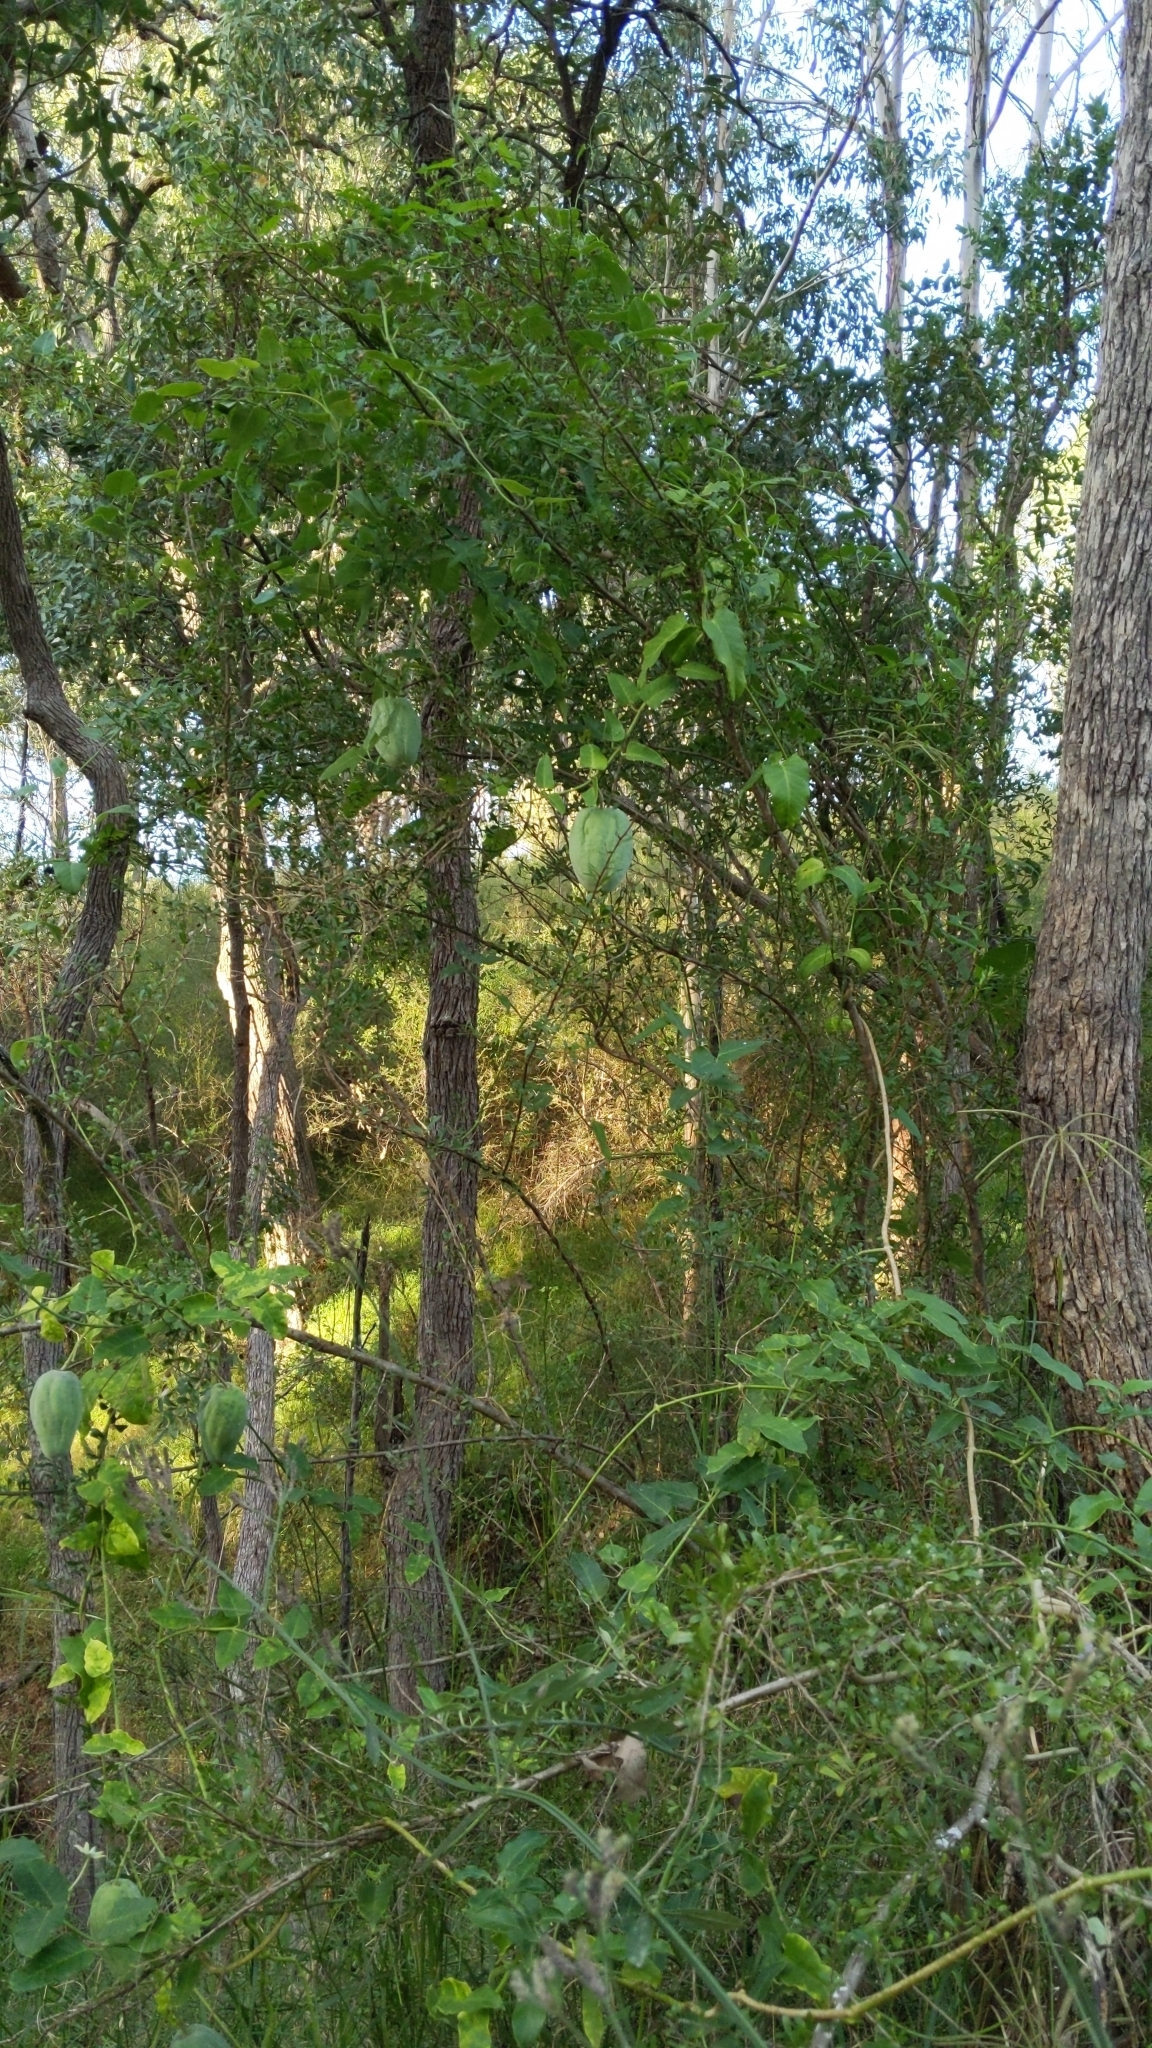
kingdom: Plantae
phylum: Tracheophyta
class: Magnoliopsida
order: Gentianales
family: Apocynaceae
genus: Araujia
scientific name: Araujia sericifera
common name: White bladderflower
